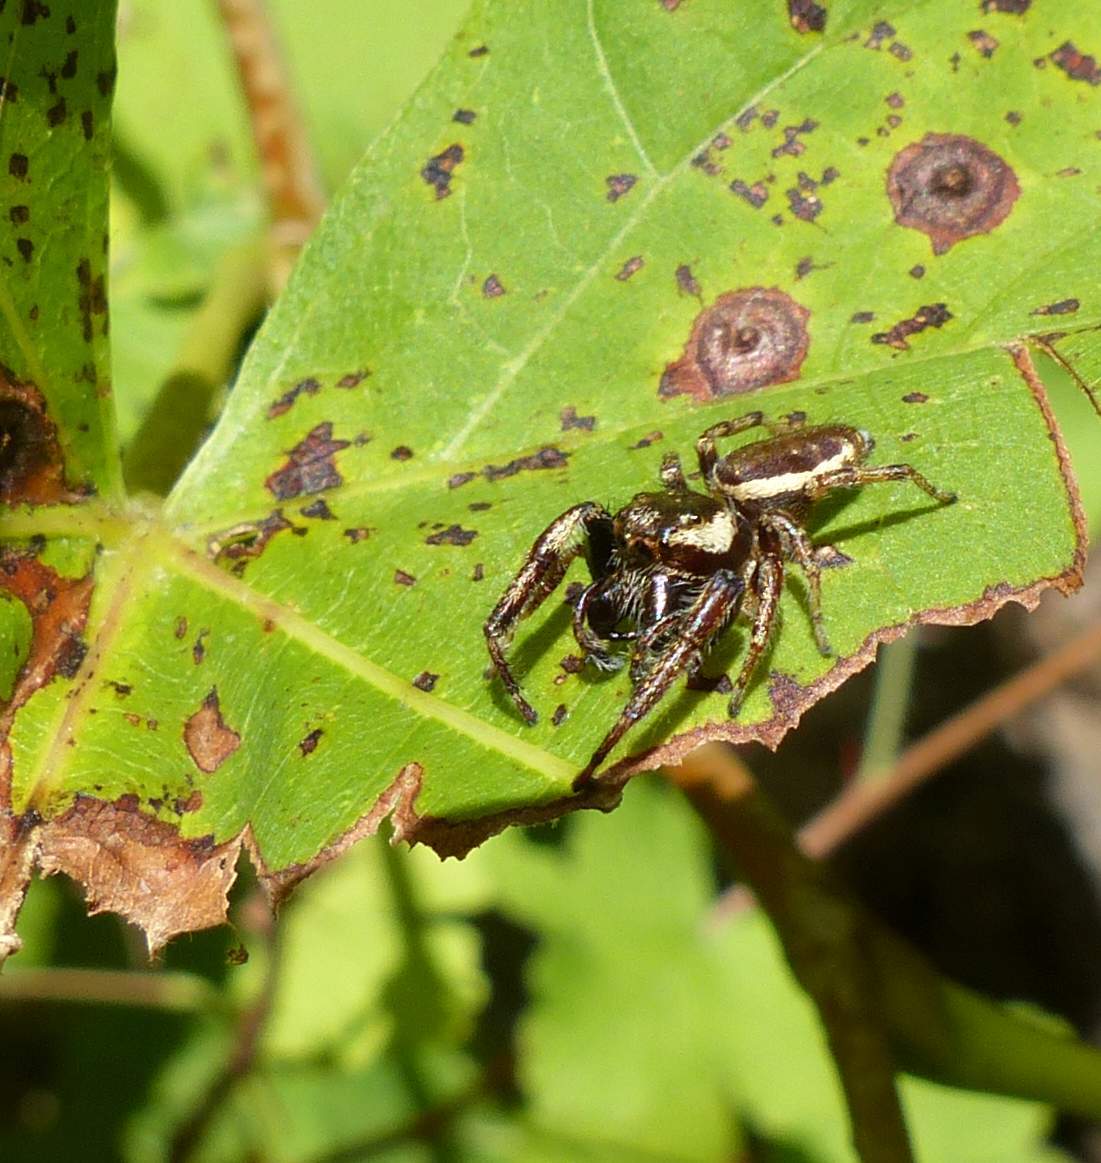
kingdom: Animalia
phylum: Arthropoda
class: Arachnida
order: Araneae
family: Salticidae
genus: Eris
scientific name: Eris militaris
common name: Bronze jumper
